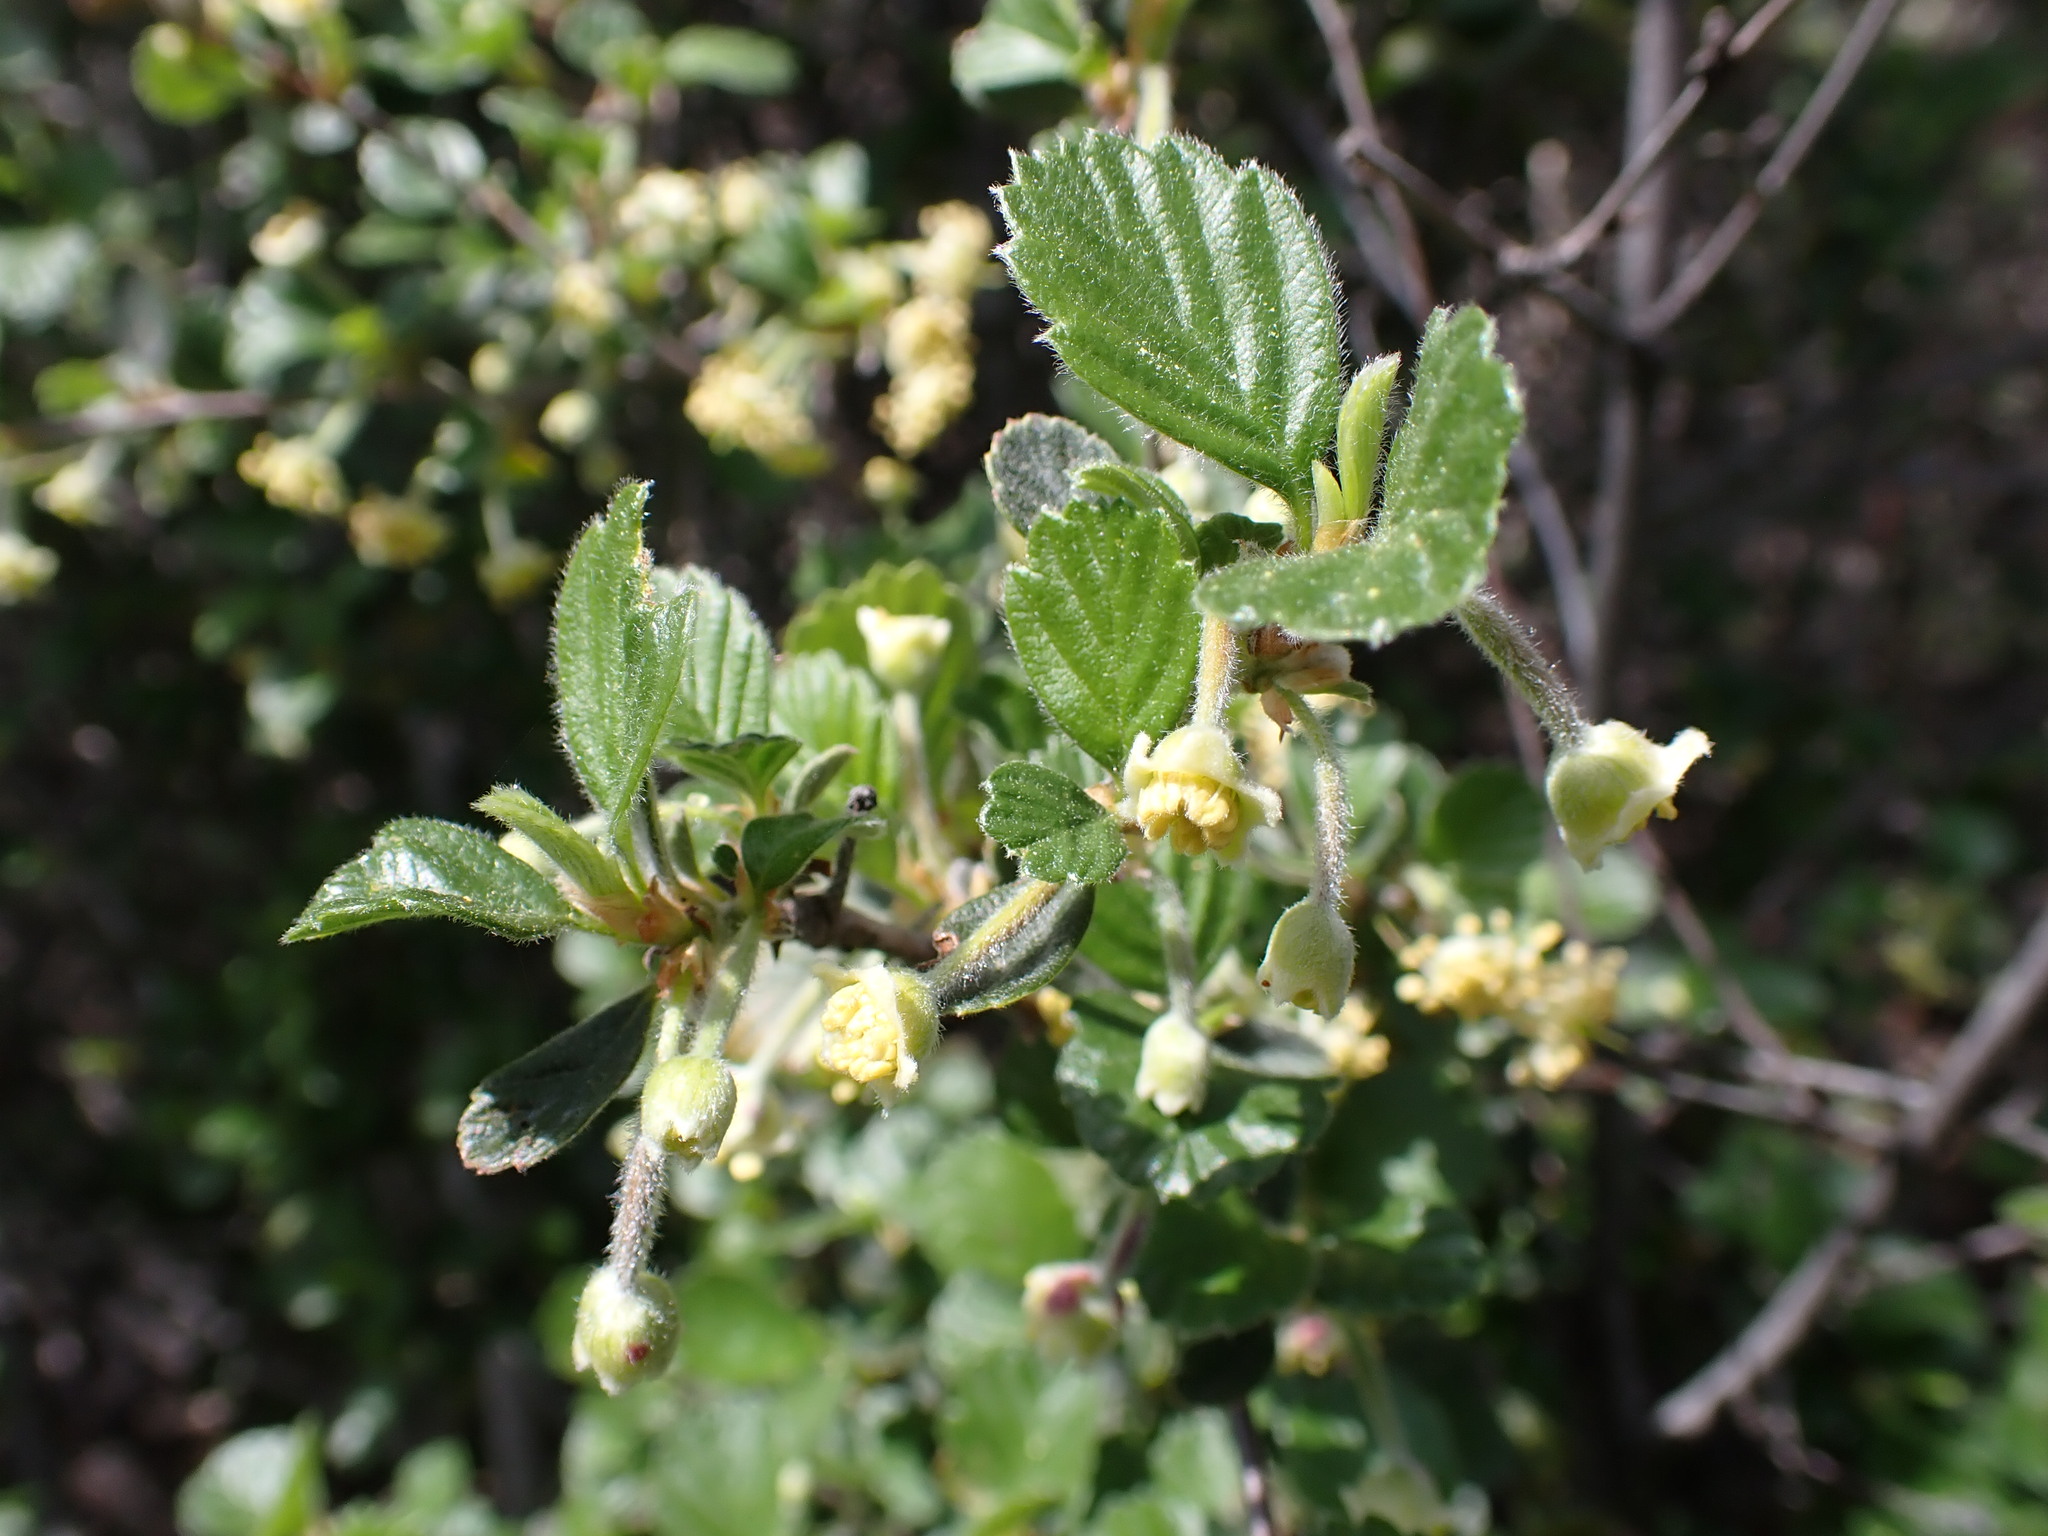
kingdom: Plantae
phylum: Tracheophyta
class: Magnoliopsida
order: Rosales
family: Rosaceae
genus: Cercocarpus
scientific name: Cercocarpus betuloides
